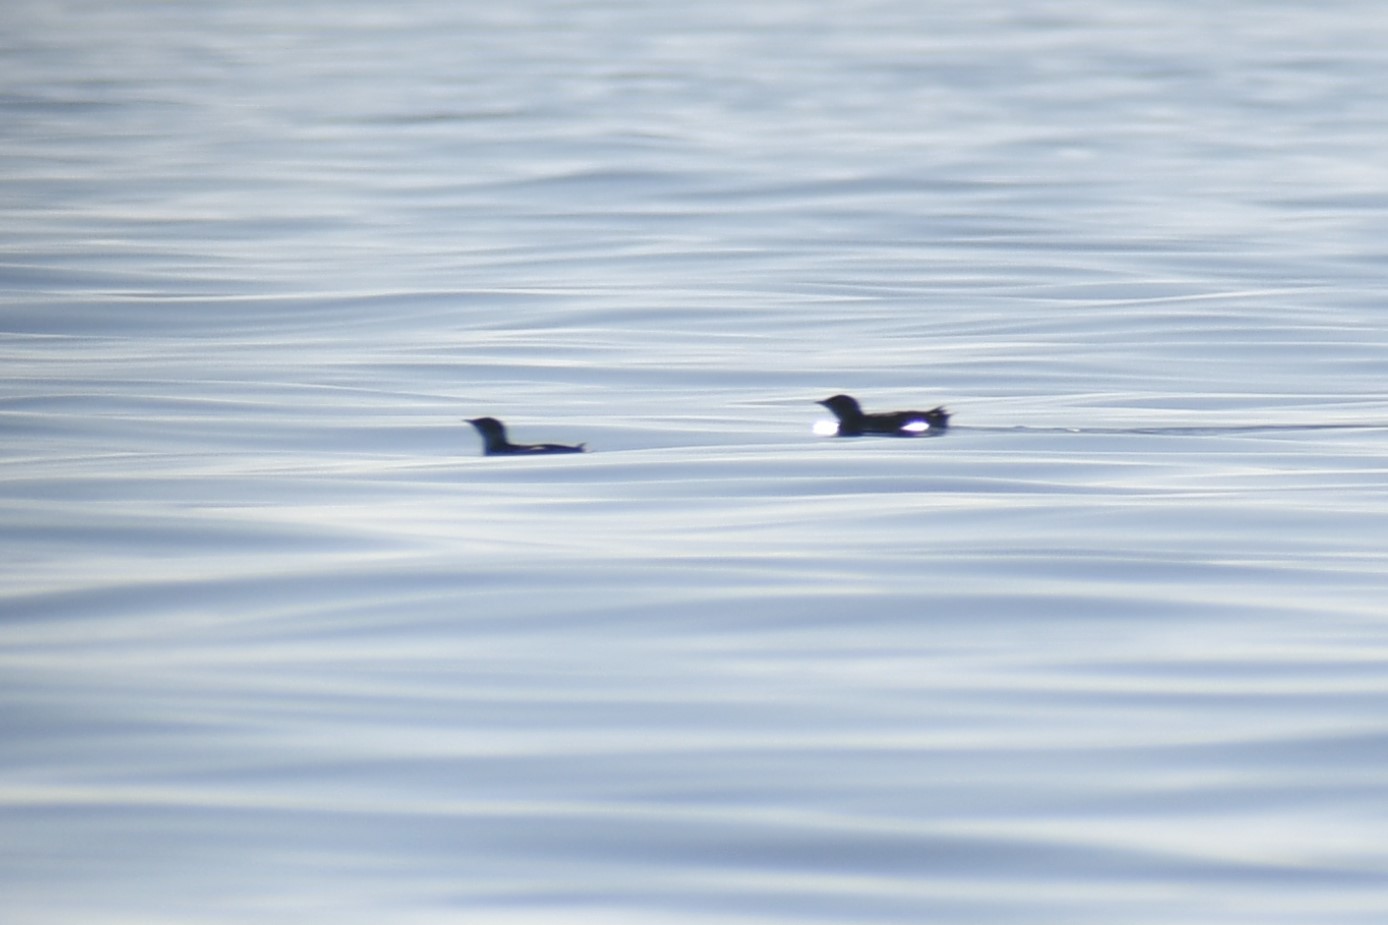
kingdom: Animalia
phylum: Chordata
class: Aves
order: Charadriiformes
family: Alcidae
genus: Brachyramphus
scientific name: Brachyramphus marmoratus
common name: Marbled murrelet
